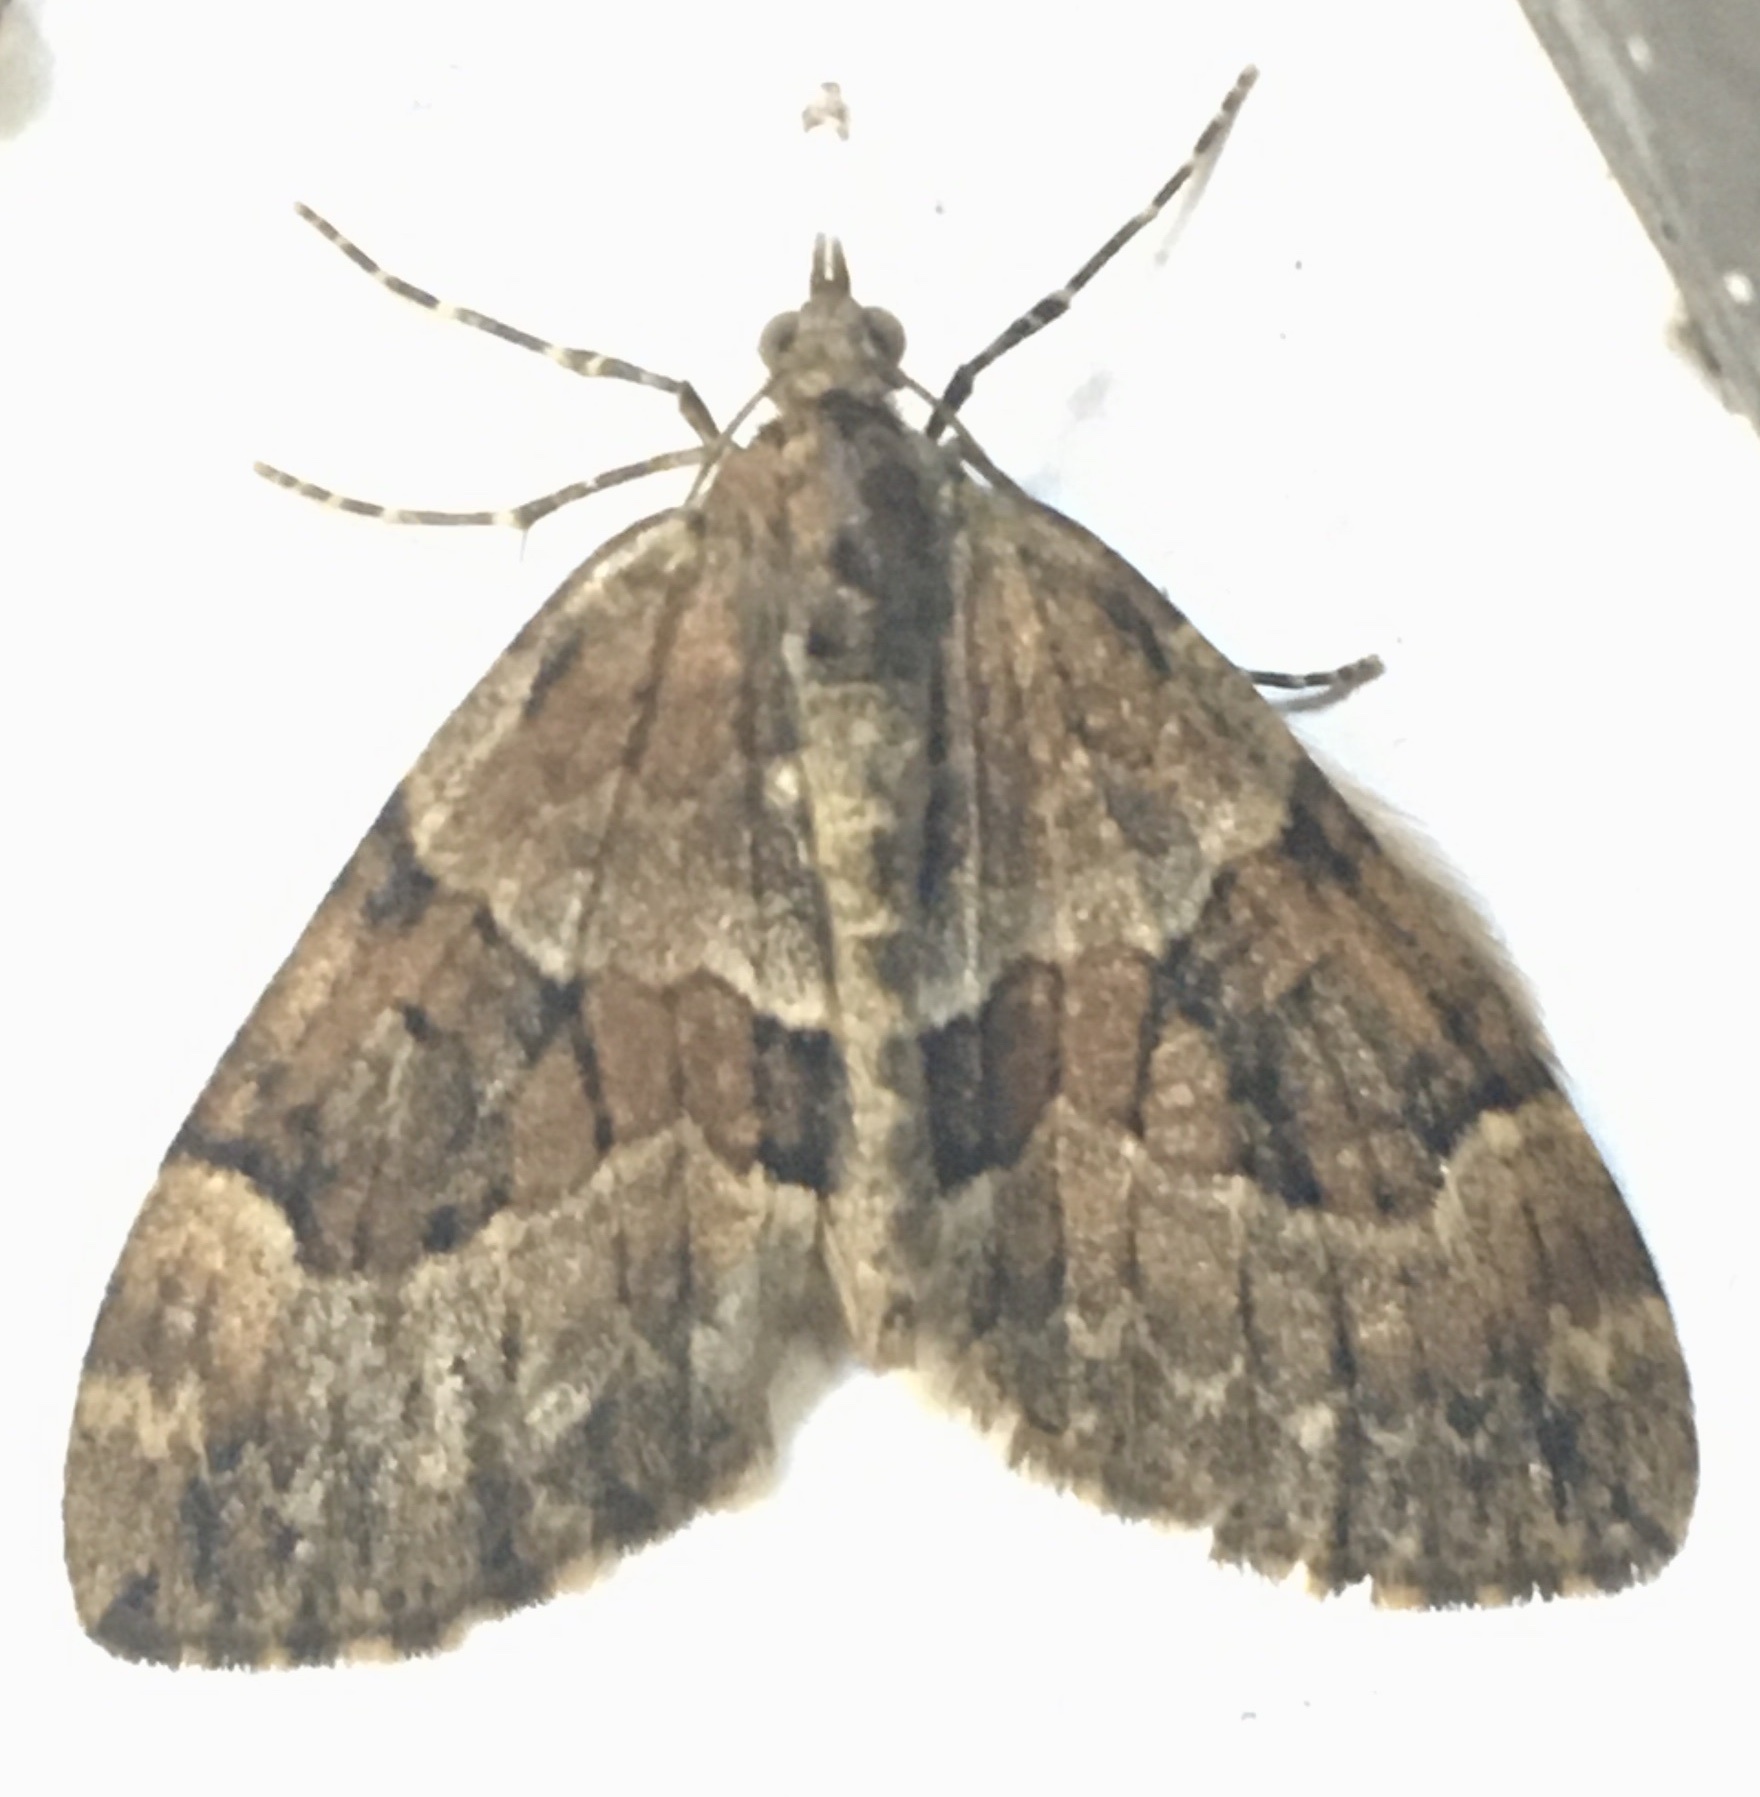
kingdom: Animalia
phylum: Arthropoda
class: Insecta
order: Lepidoptera
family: Geometridae
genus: Thera
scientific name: Thera britannica
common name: Spruce carpet
